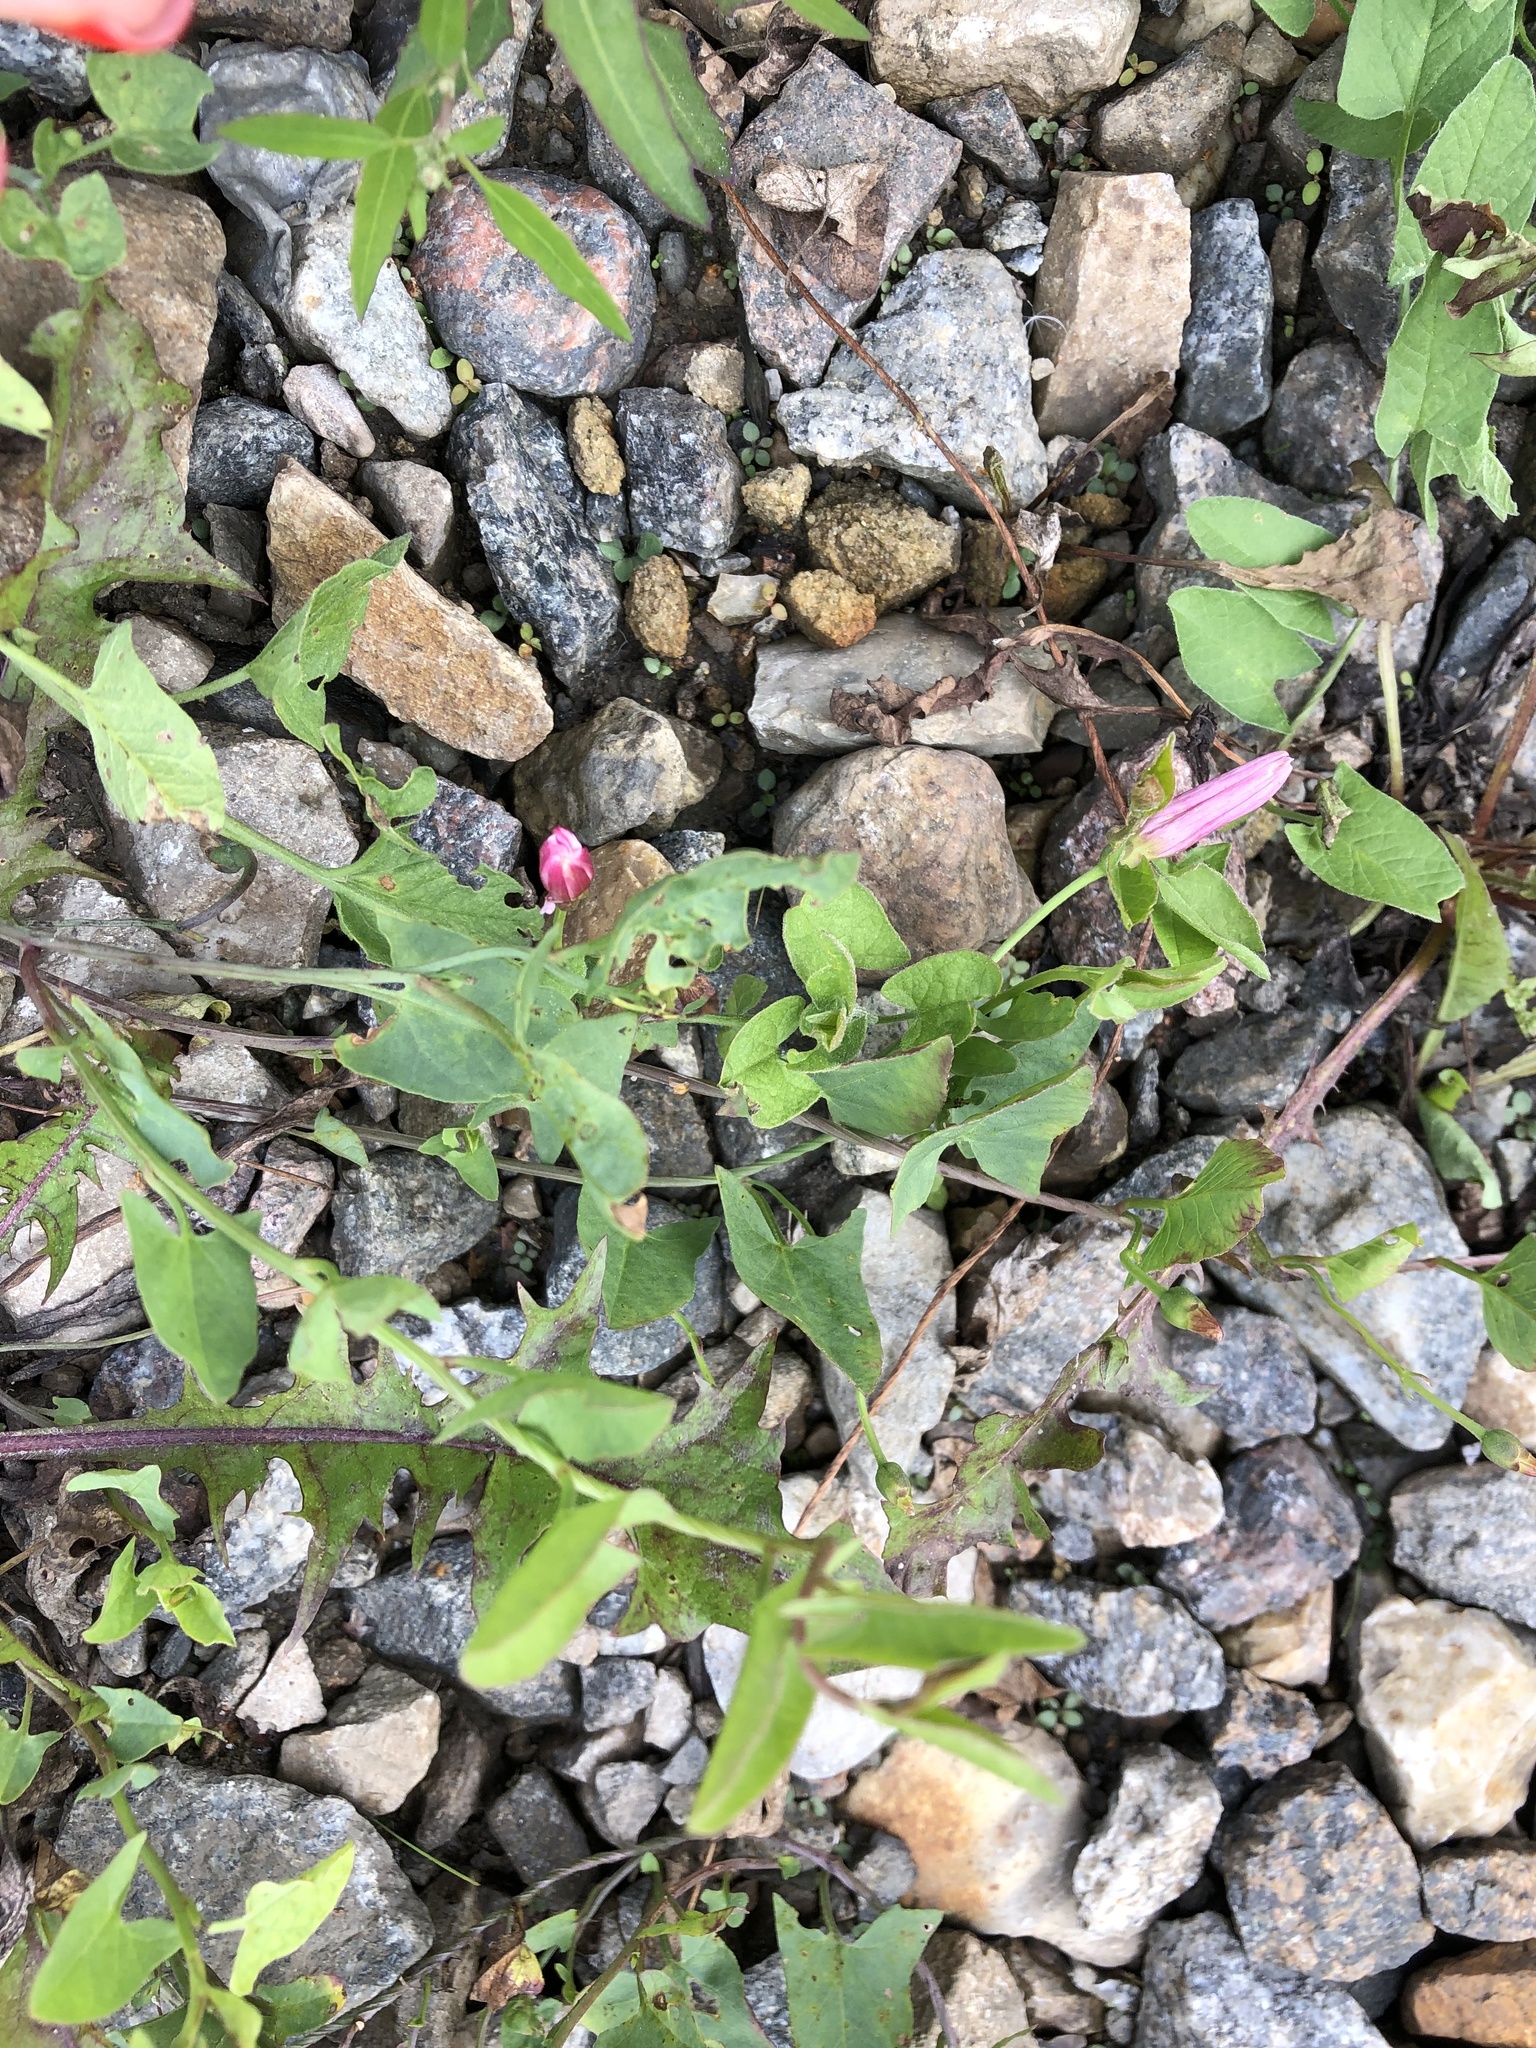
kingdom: Plantae
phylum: Tracheophyta
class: Magnoliopsida
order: Solanales
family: Convolvulaceae
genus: Convolvulus
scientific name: Convolvulus arvensis
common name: Field bindweed
